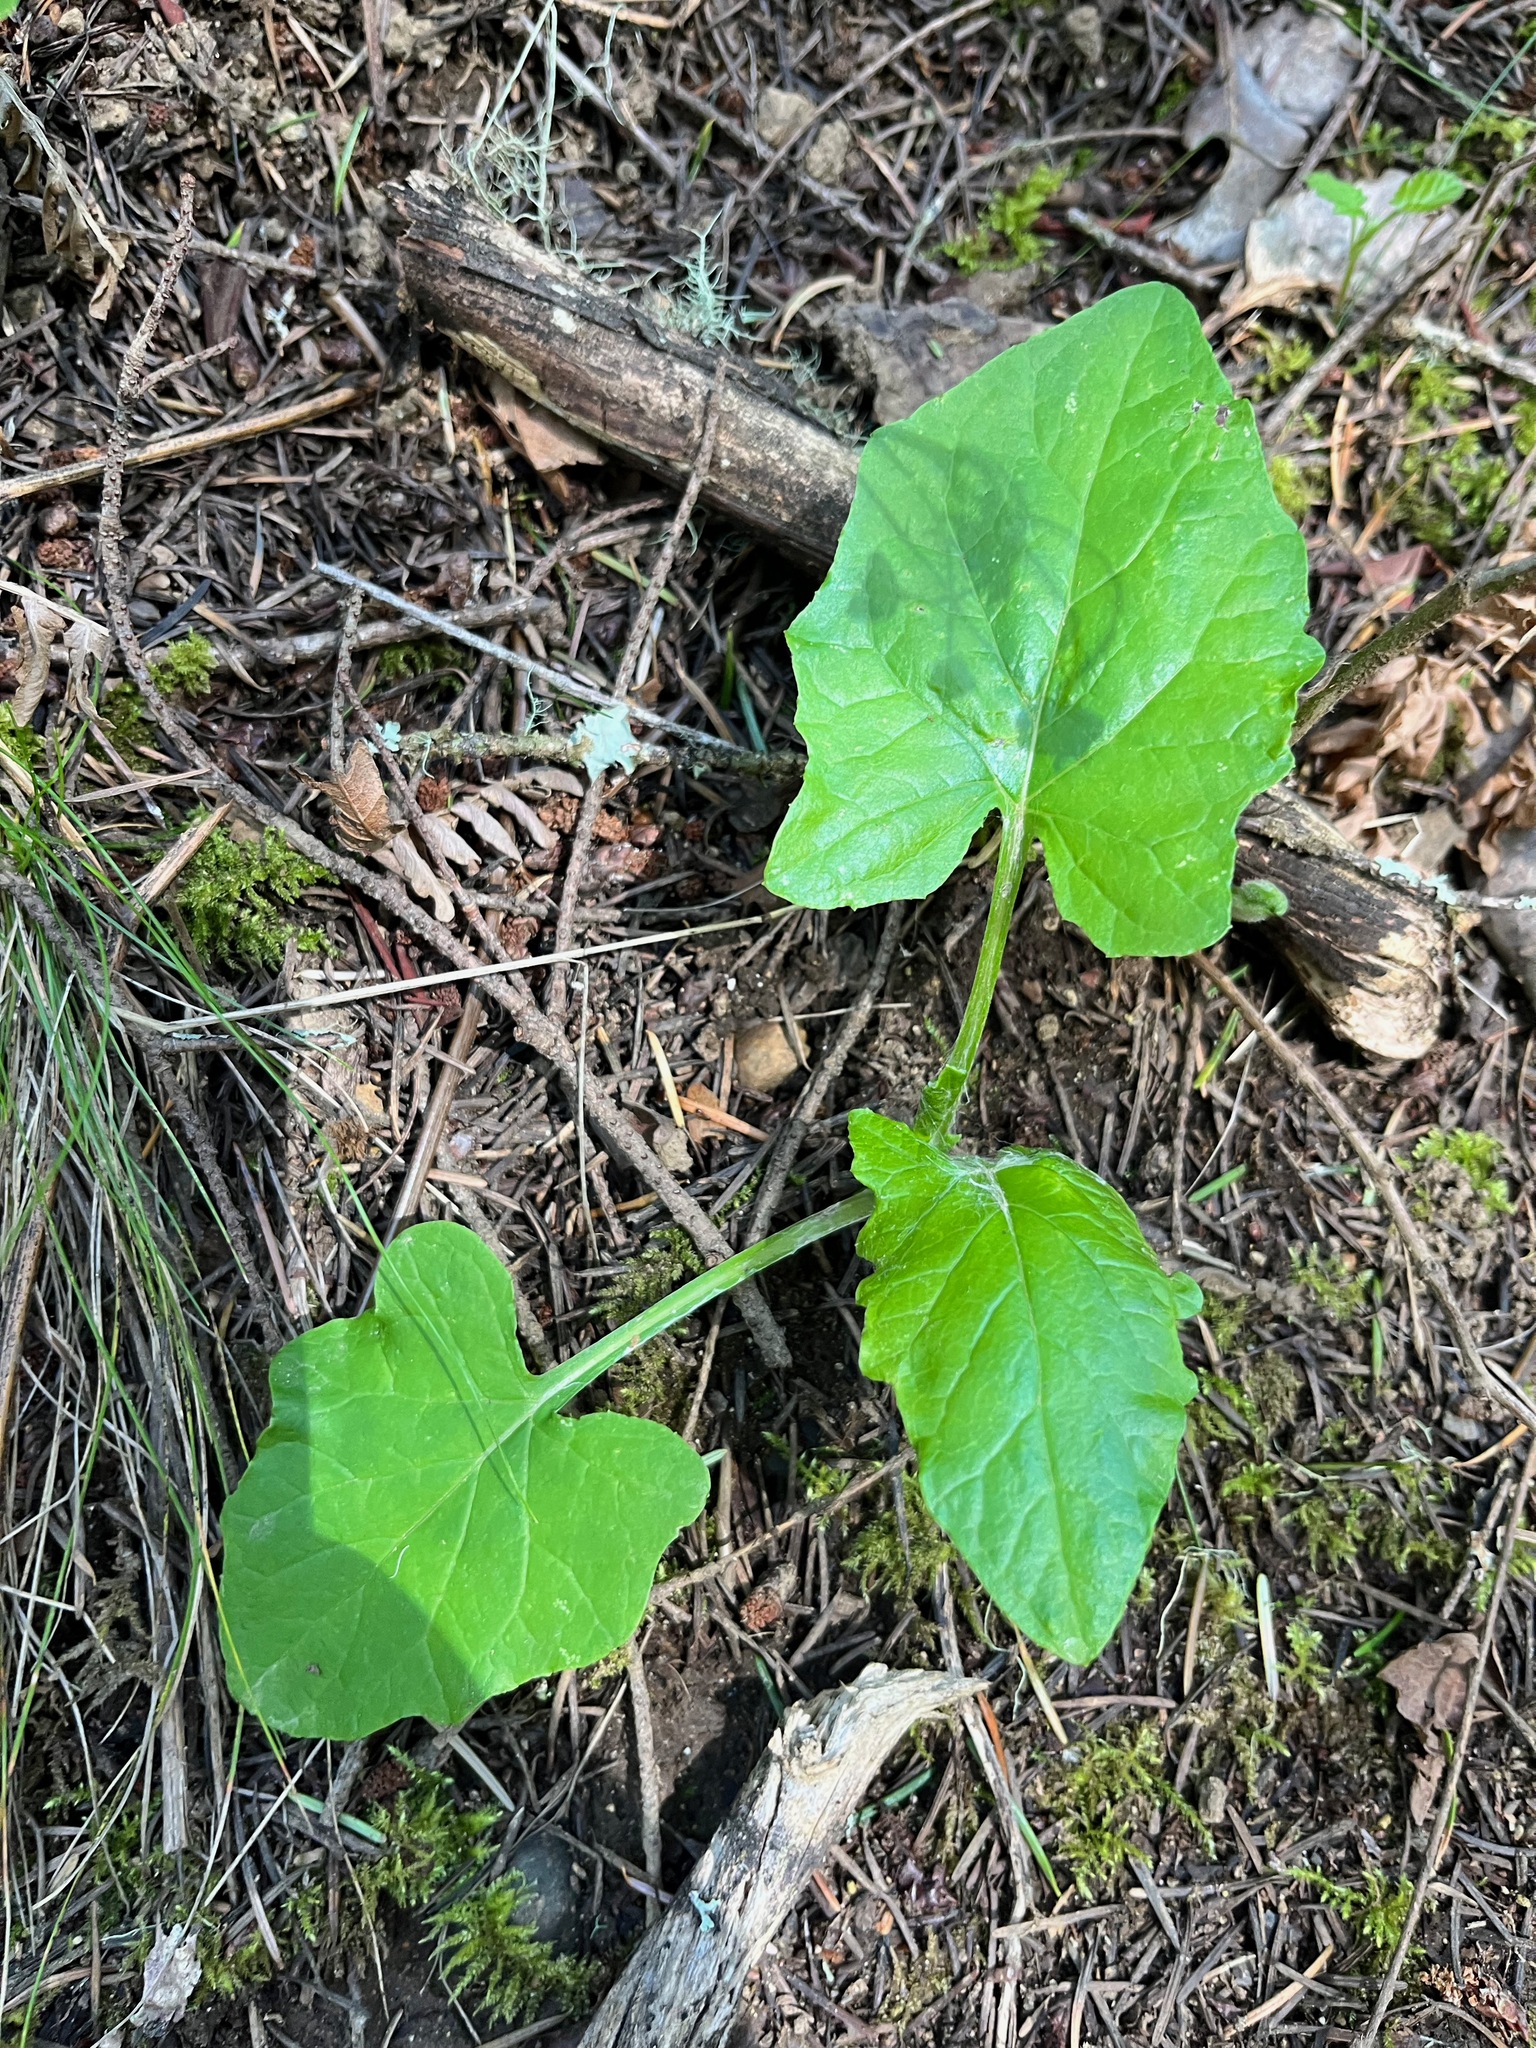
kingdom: Plantae
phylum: Tracheophyta
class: Magnoliopsida
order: Asterales
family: Asteraceae
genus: Adenocaulon
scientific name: Adenocaulon bicolor
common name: Trailplant
